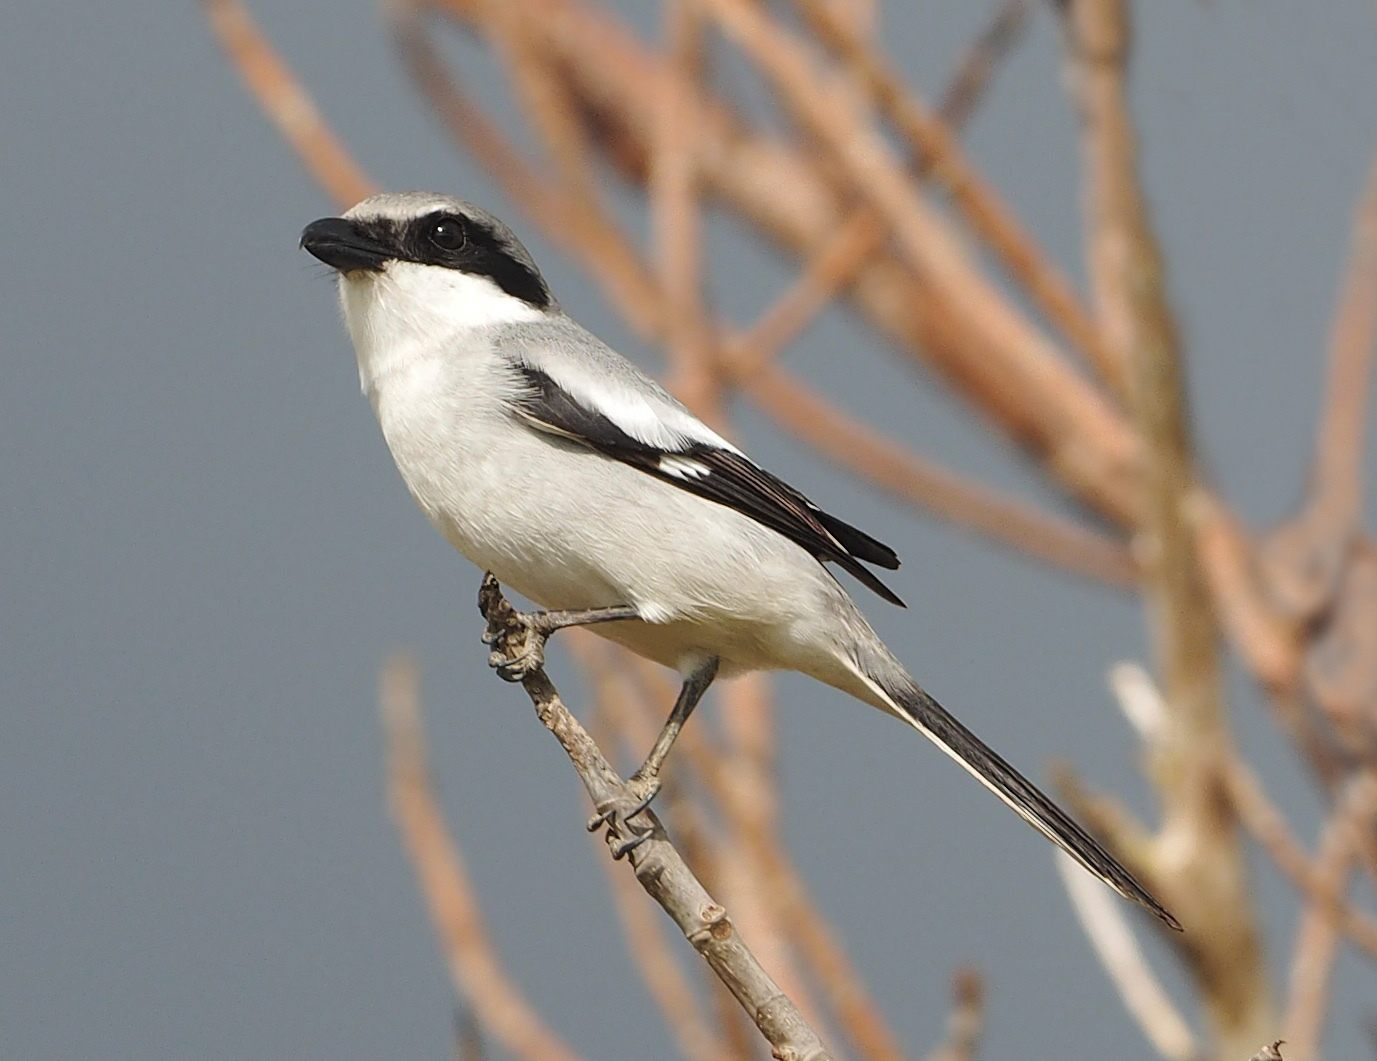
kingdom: Animalia
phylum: Chordata
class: Aves
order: Passeriformes
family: Laniidae
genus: Lanius
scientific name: Lanius ludovicianus
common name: Loggerhead shrike
